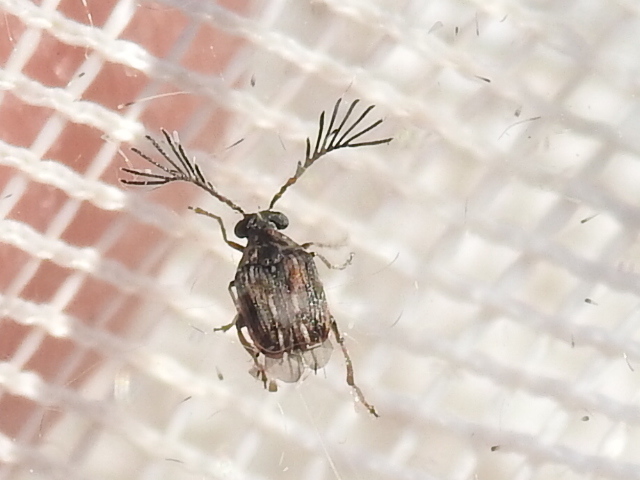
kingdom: Animalia
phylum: Arthropoda
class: Insecta
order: Coleoptera
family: Chrysomelidae
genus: Megacerus
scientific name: Megacerus cubiculus
